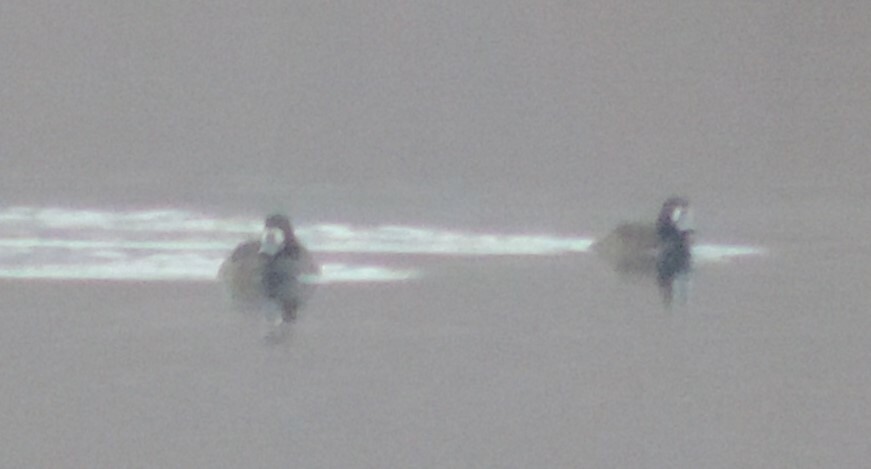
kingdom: Animalia
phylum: Chordata
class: Aves
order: Anseriformes
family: Anatidae
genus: Aythya
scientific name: Aythya marila
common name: Greater scaup
